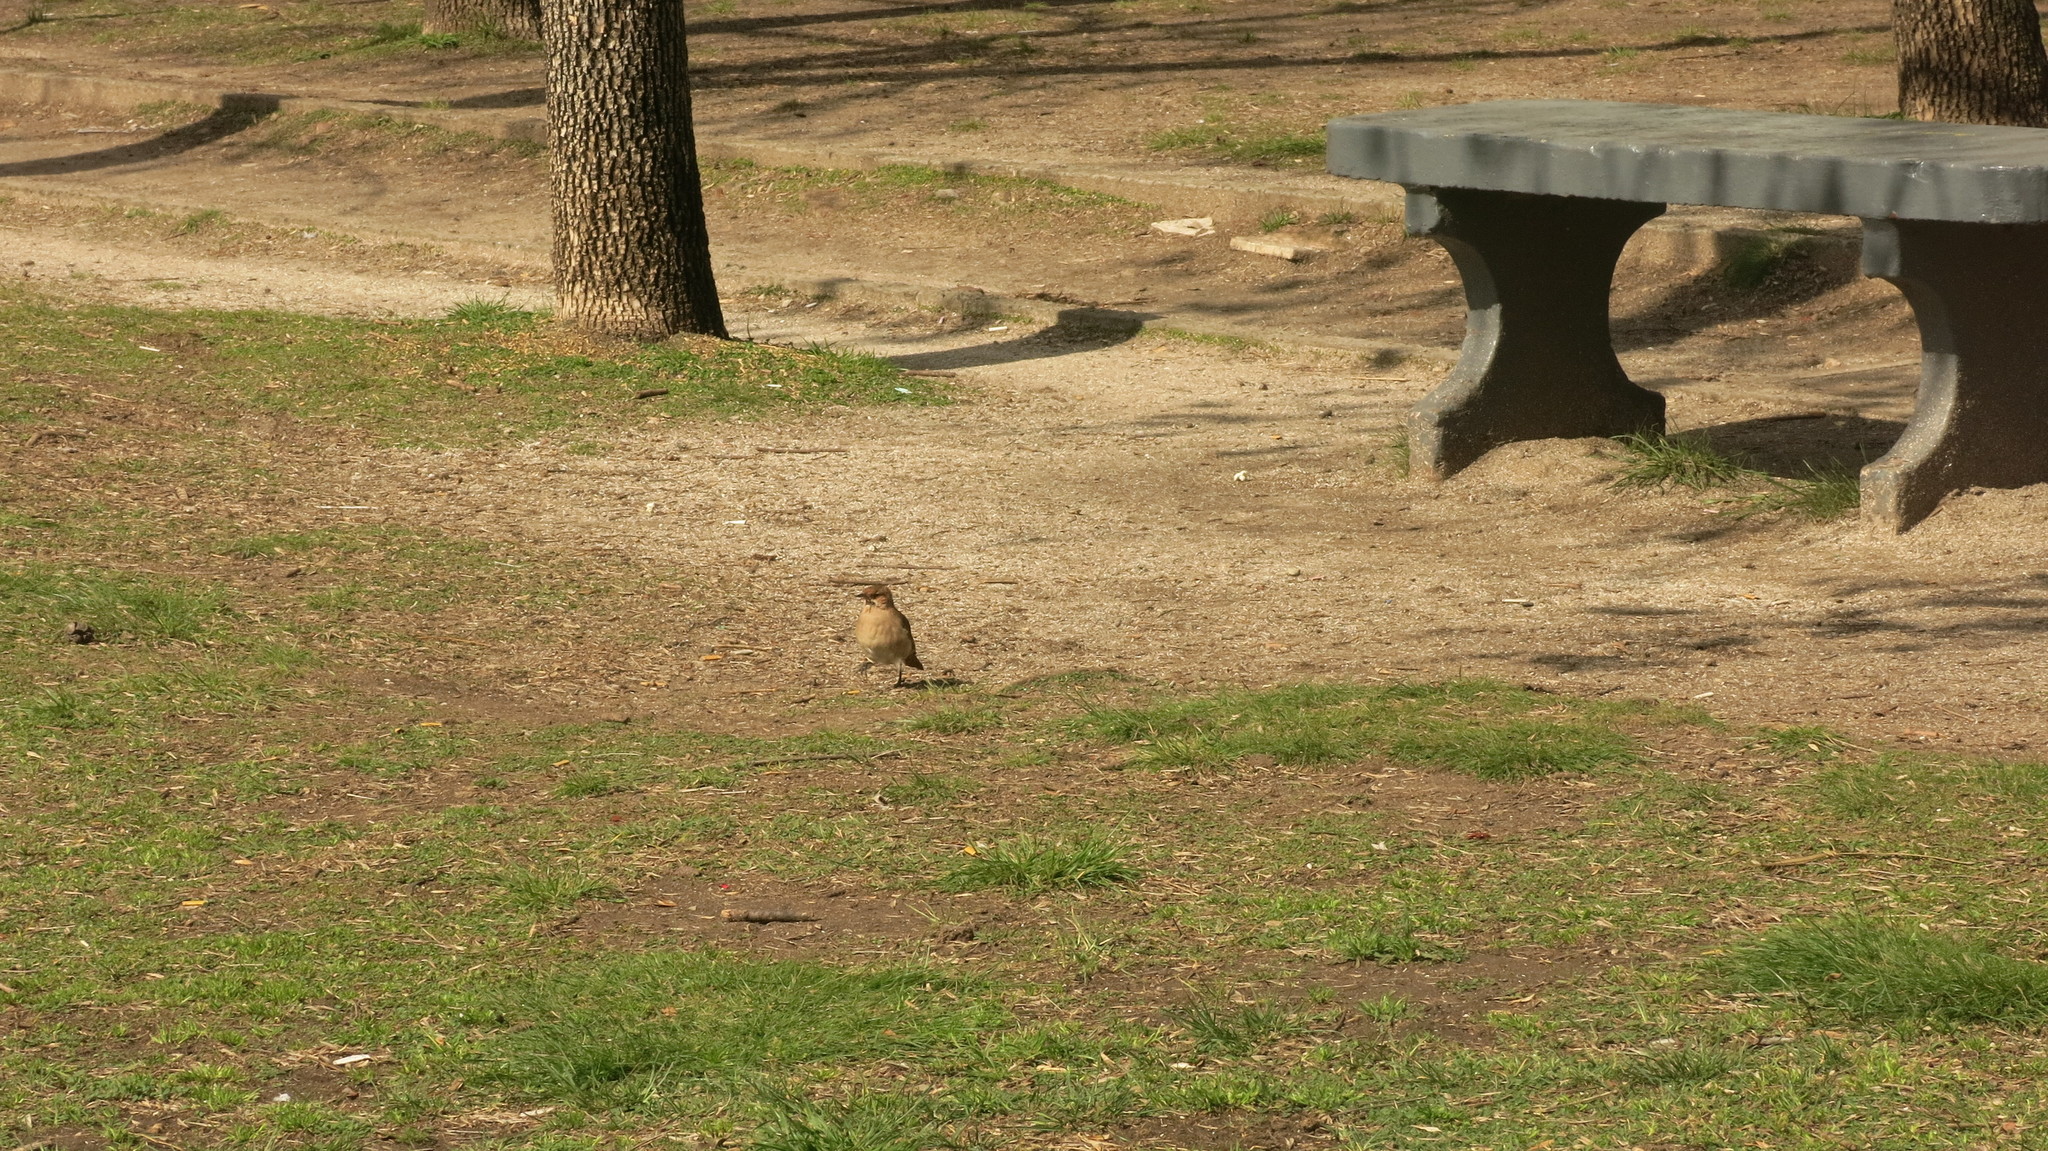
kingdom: Animalia
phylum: Chordata
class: Aves
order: Passeriformes
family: Furnariidae
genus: Furnarius
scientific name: Furnarius rufus
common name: Rufous hornero
